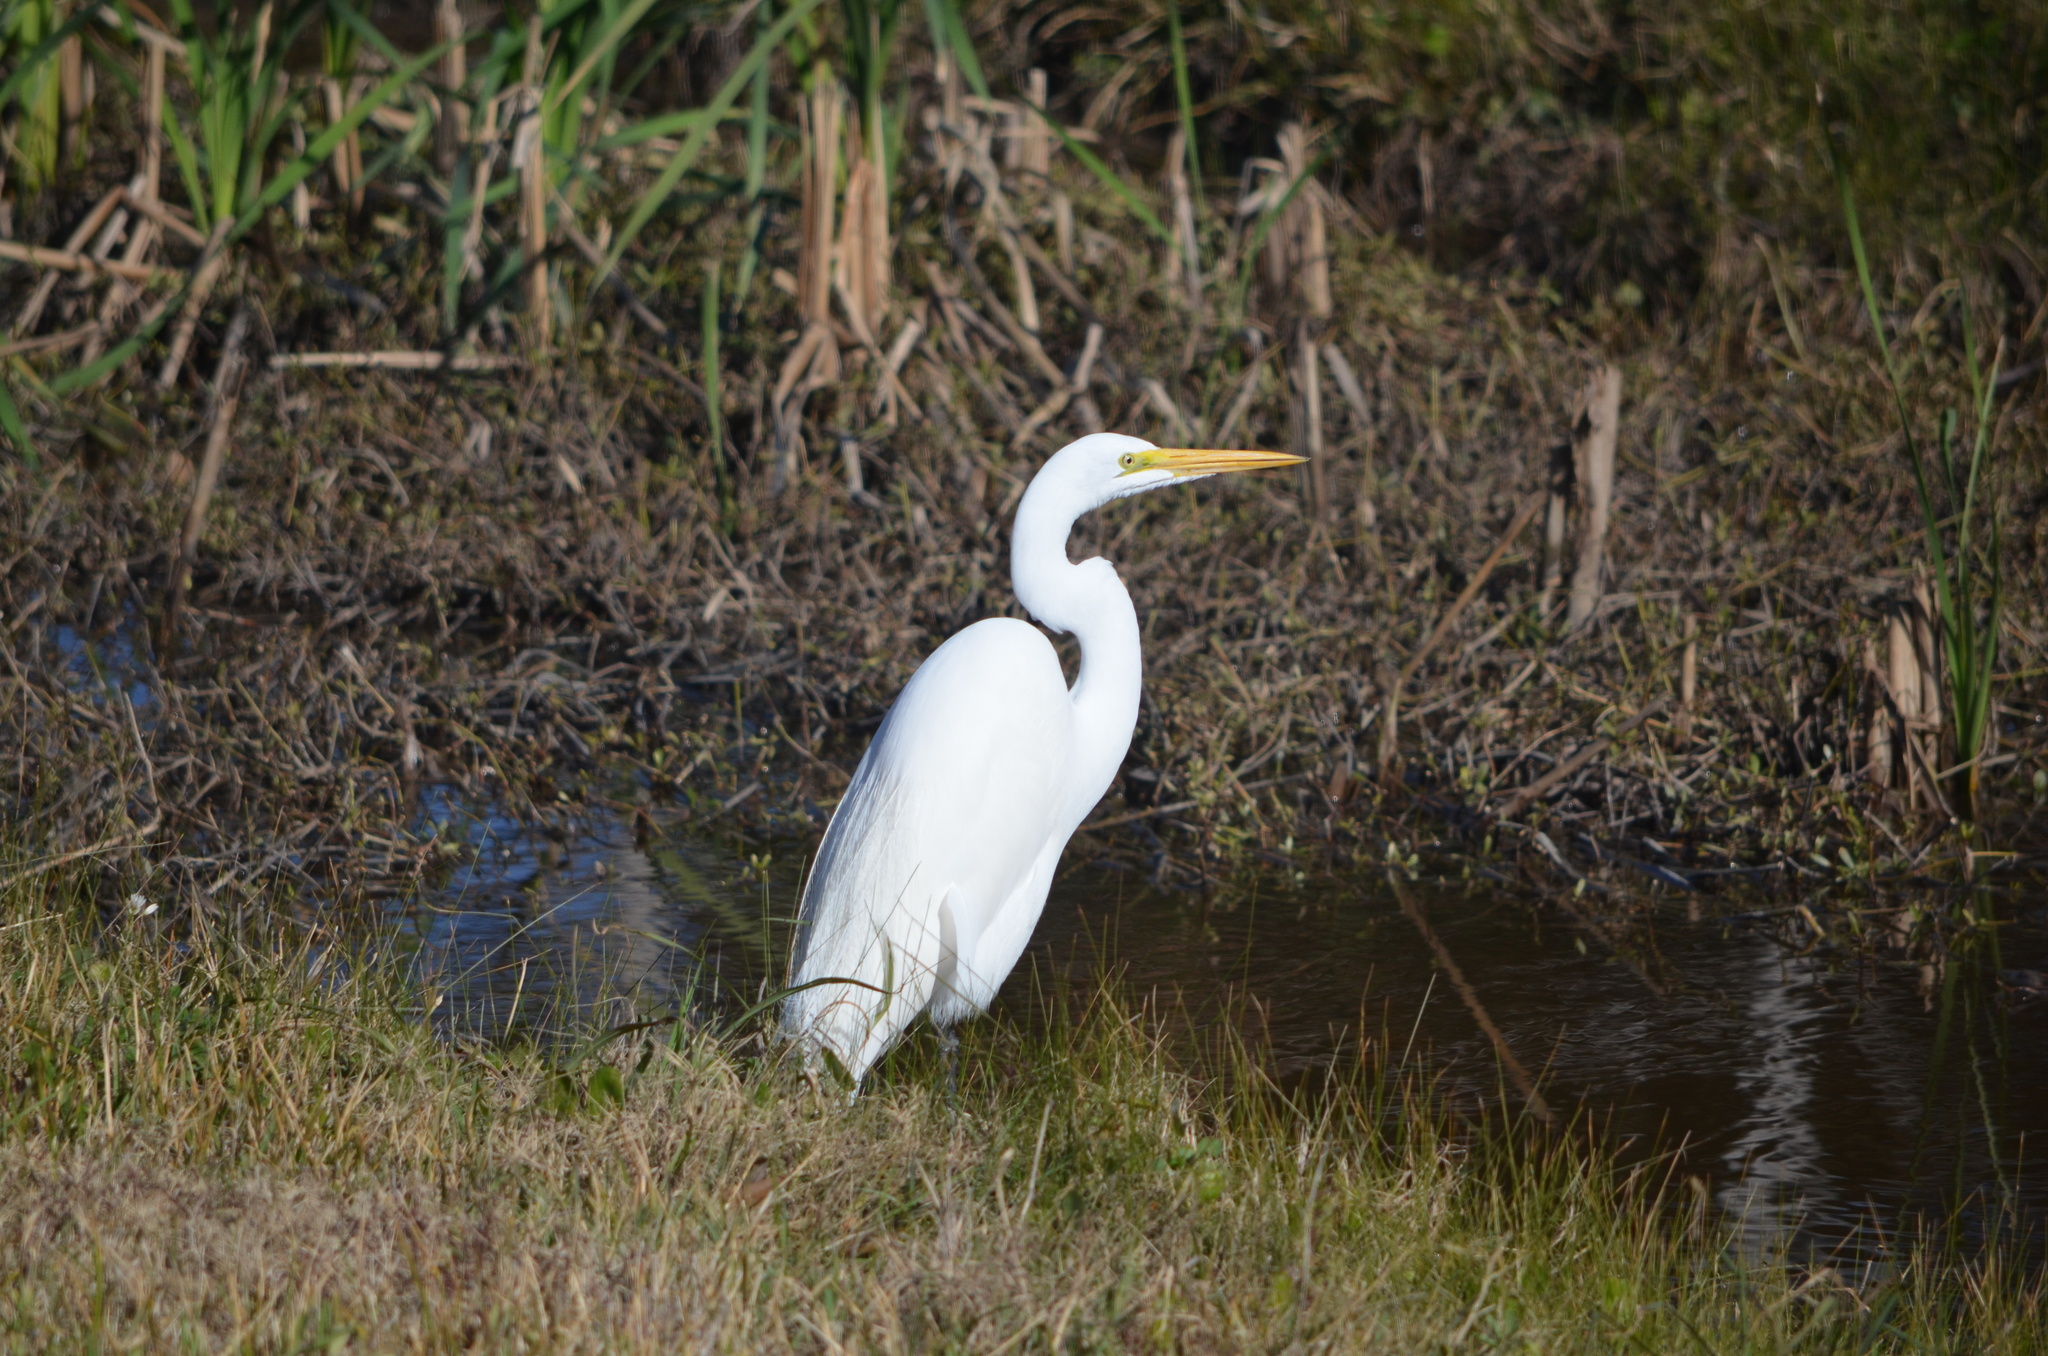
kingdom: Animalia
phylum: Chordata
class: Aves
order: Pelecaniformes
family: Ardeidae
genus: Ardea
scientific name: Ardea alba
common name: Great egret
